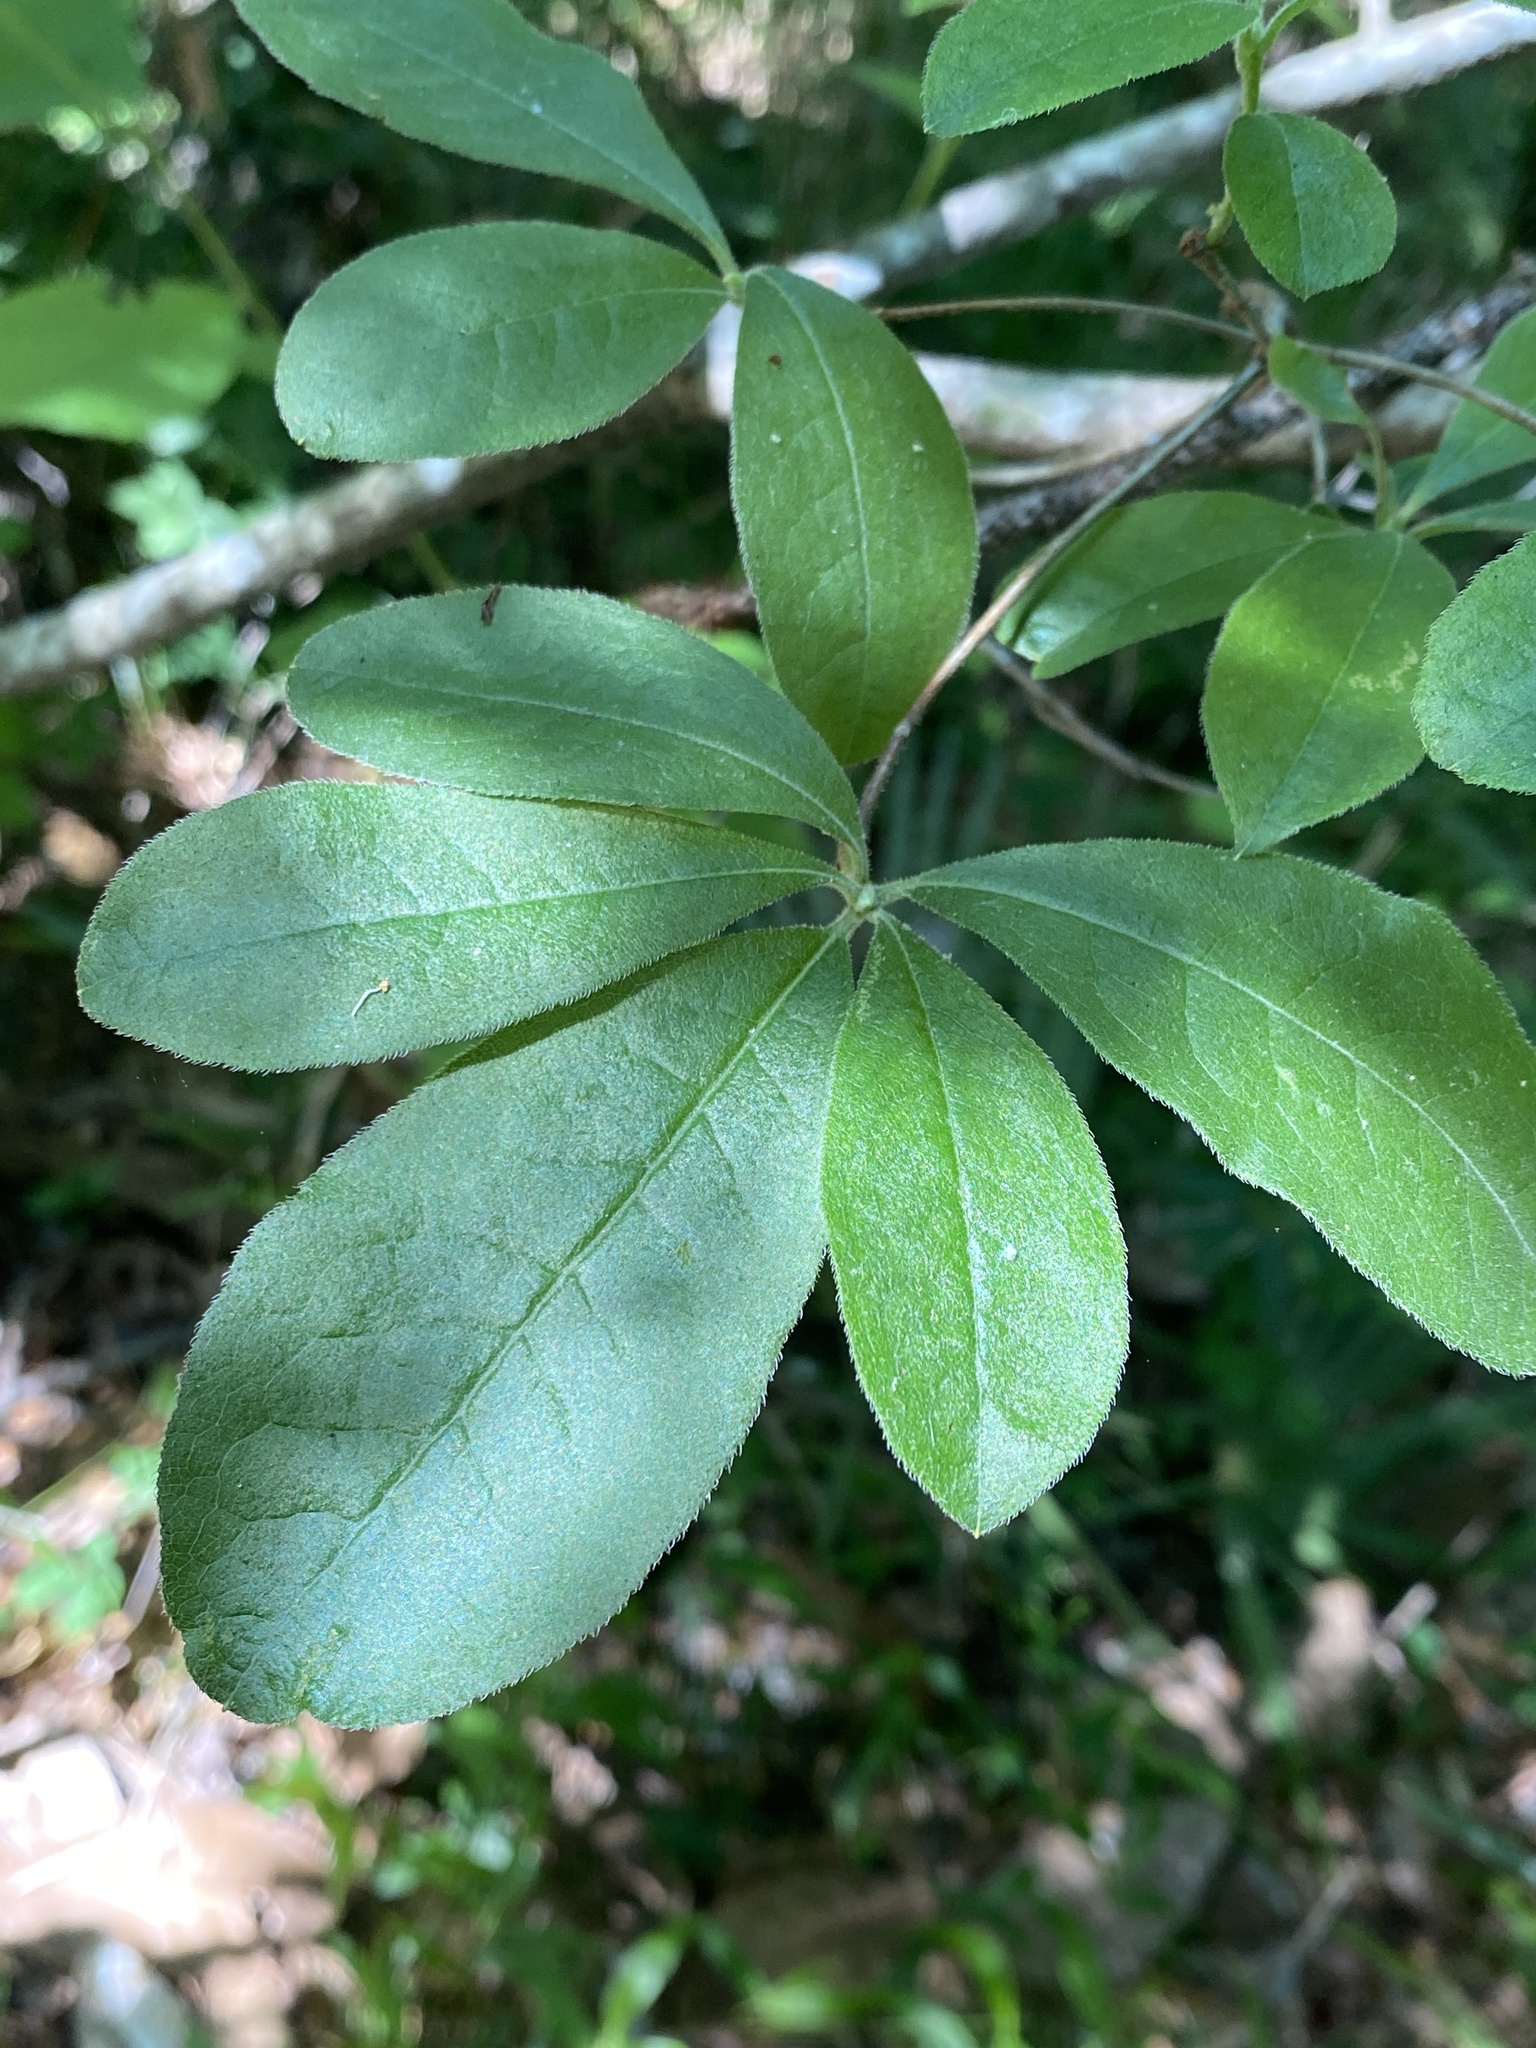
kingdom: Plantae
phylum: Tracheophyta
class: Magnoliopsida
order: Ericales
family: Ericaceae
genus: Rhododendron
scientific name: Rhododendron austrinum
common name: Florida azalea
